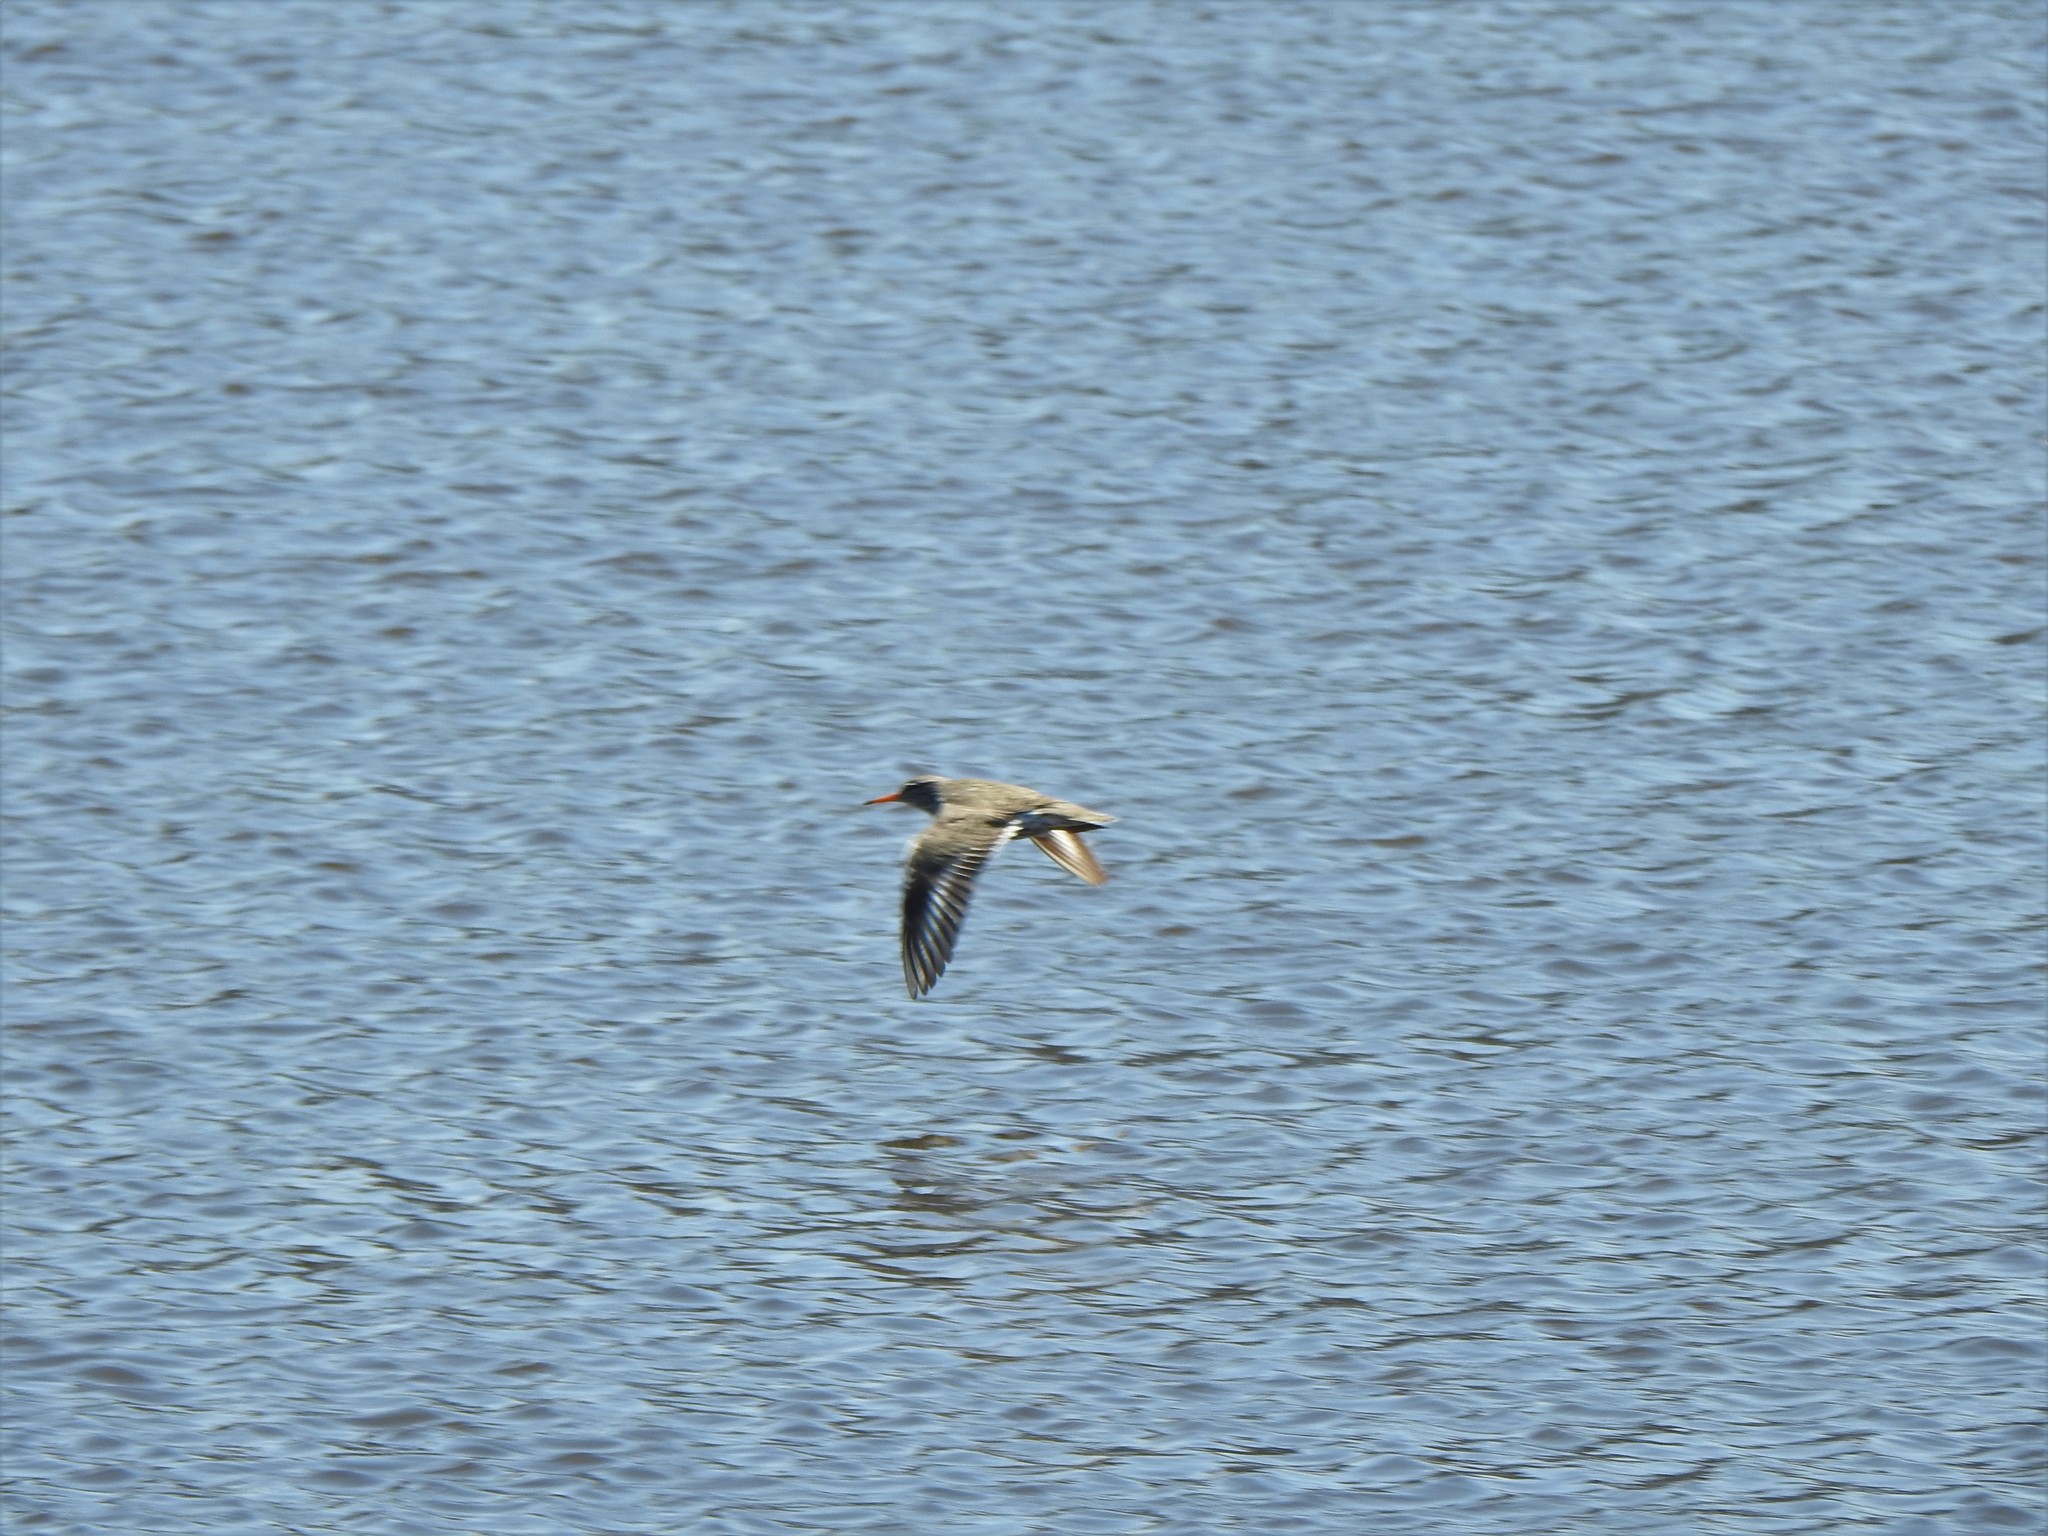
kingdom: Animalia
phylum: Chordata
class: Aves
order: Charadriiformes
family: Scolopacidae
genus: Actitis
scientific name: Actitis macularius
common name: Spotted sandpiper
